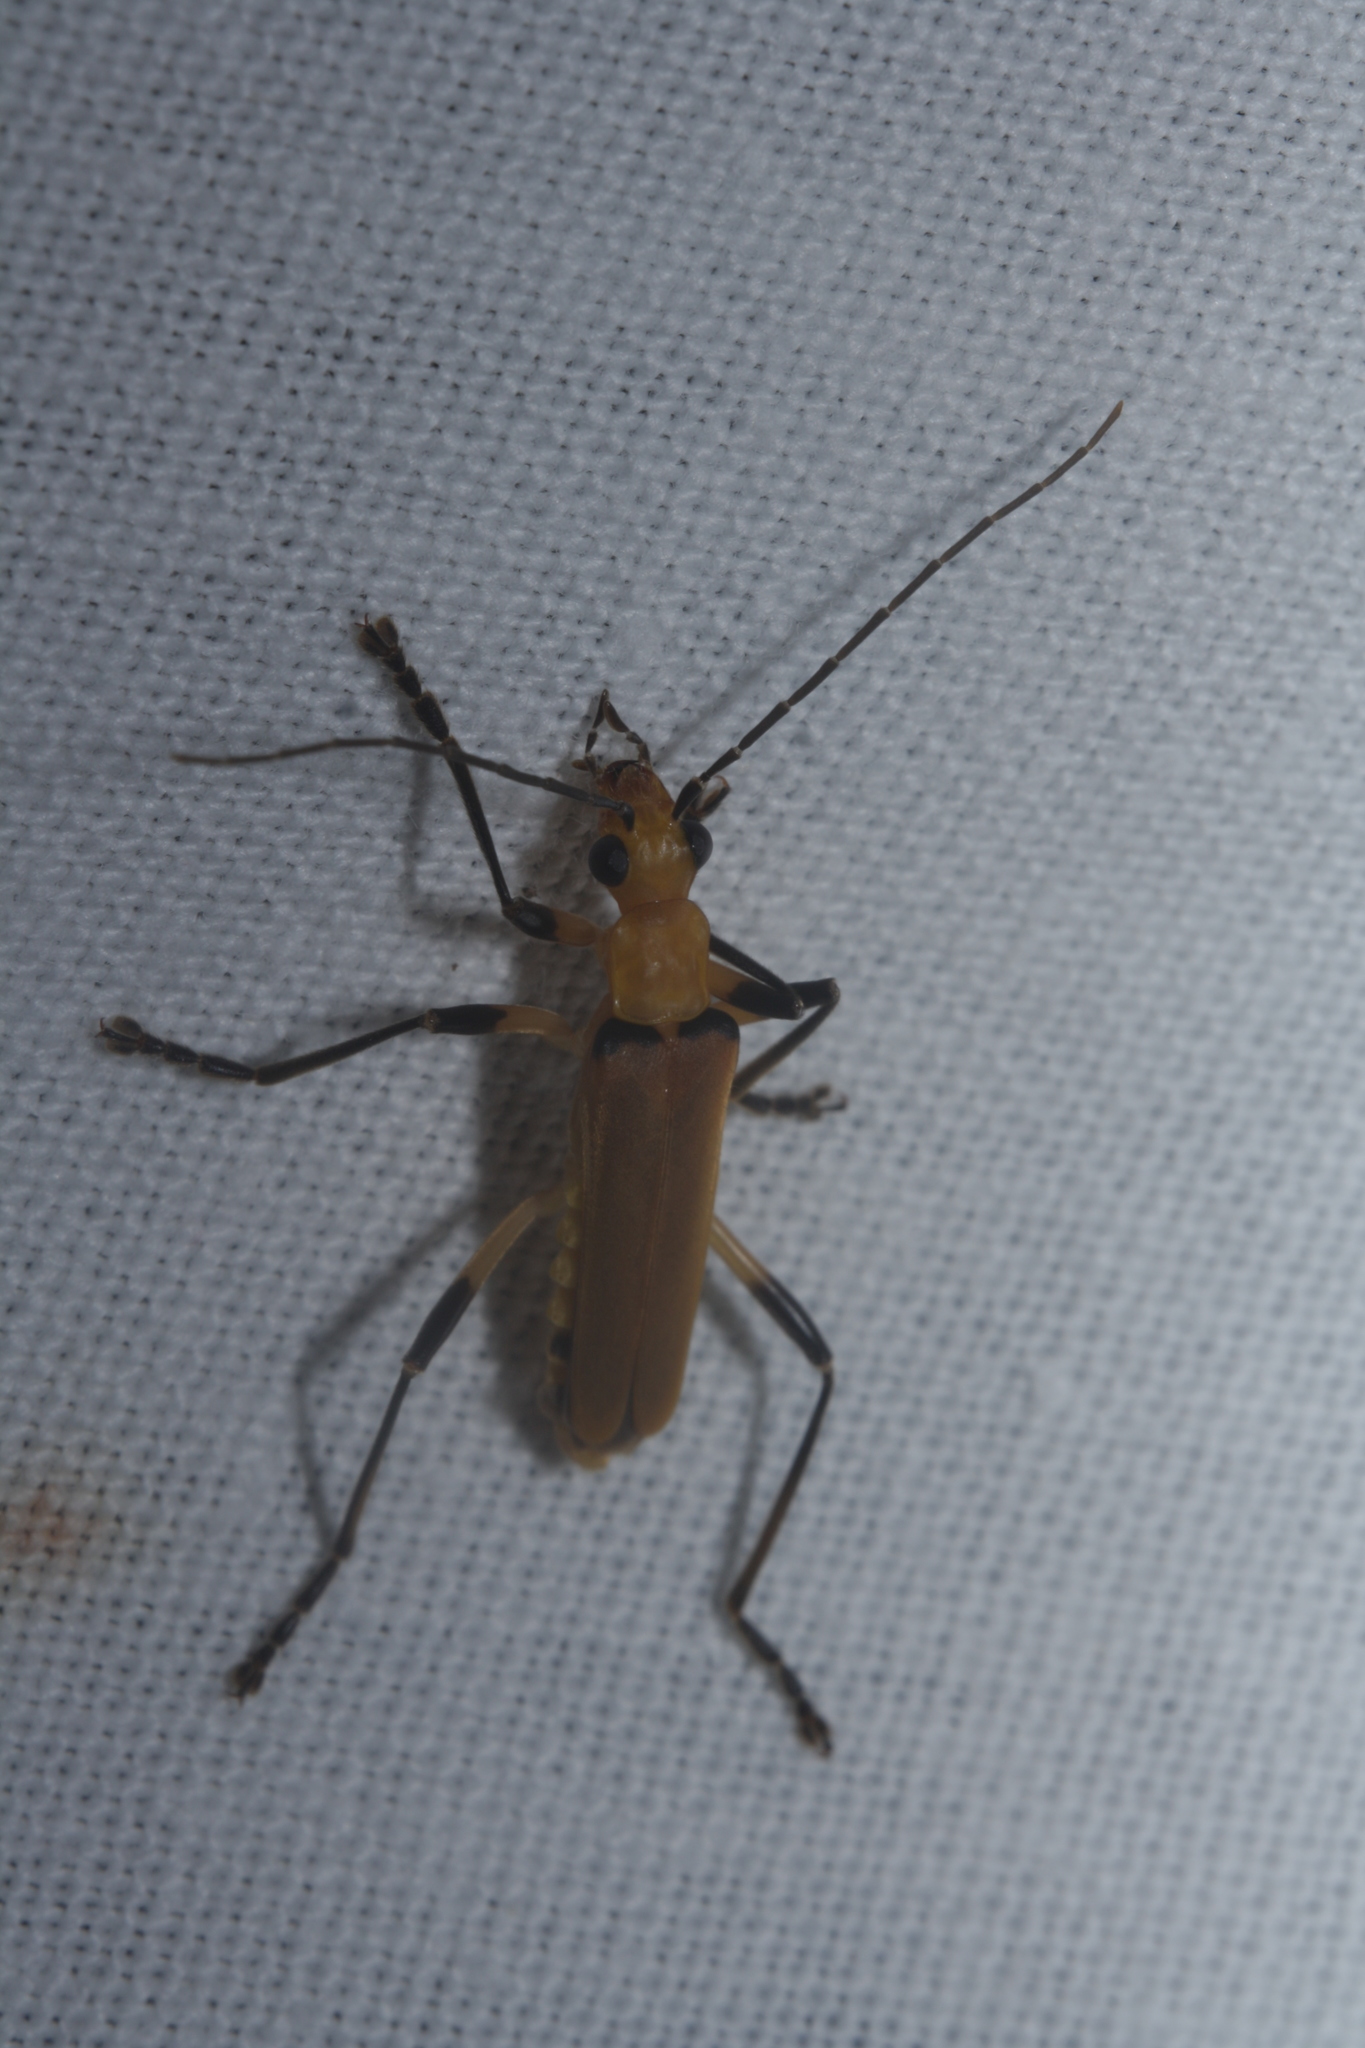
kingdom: Animalia
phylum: Arthropoda
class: Insecta
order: Coleoptera
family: Cantharidae
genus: Chauliognathus
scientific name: Chauliognathus
